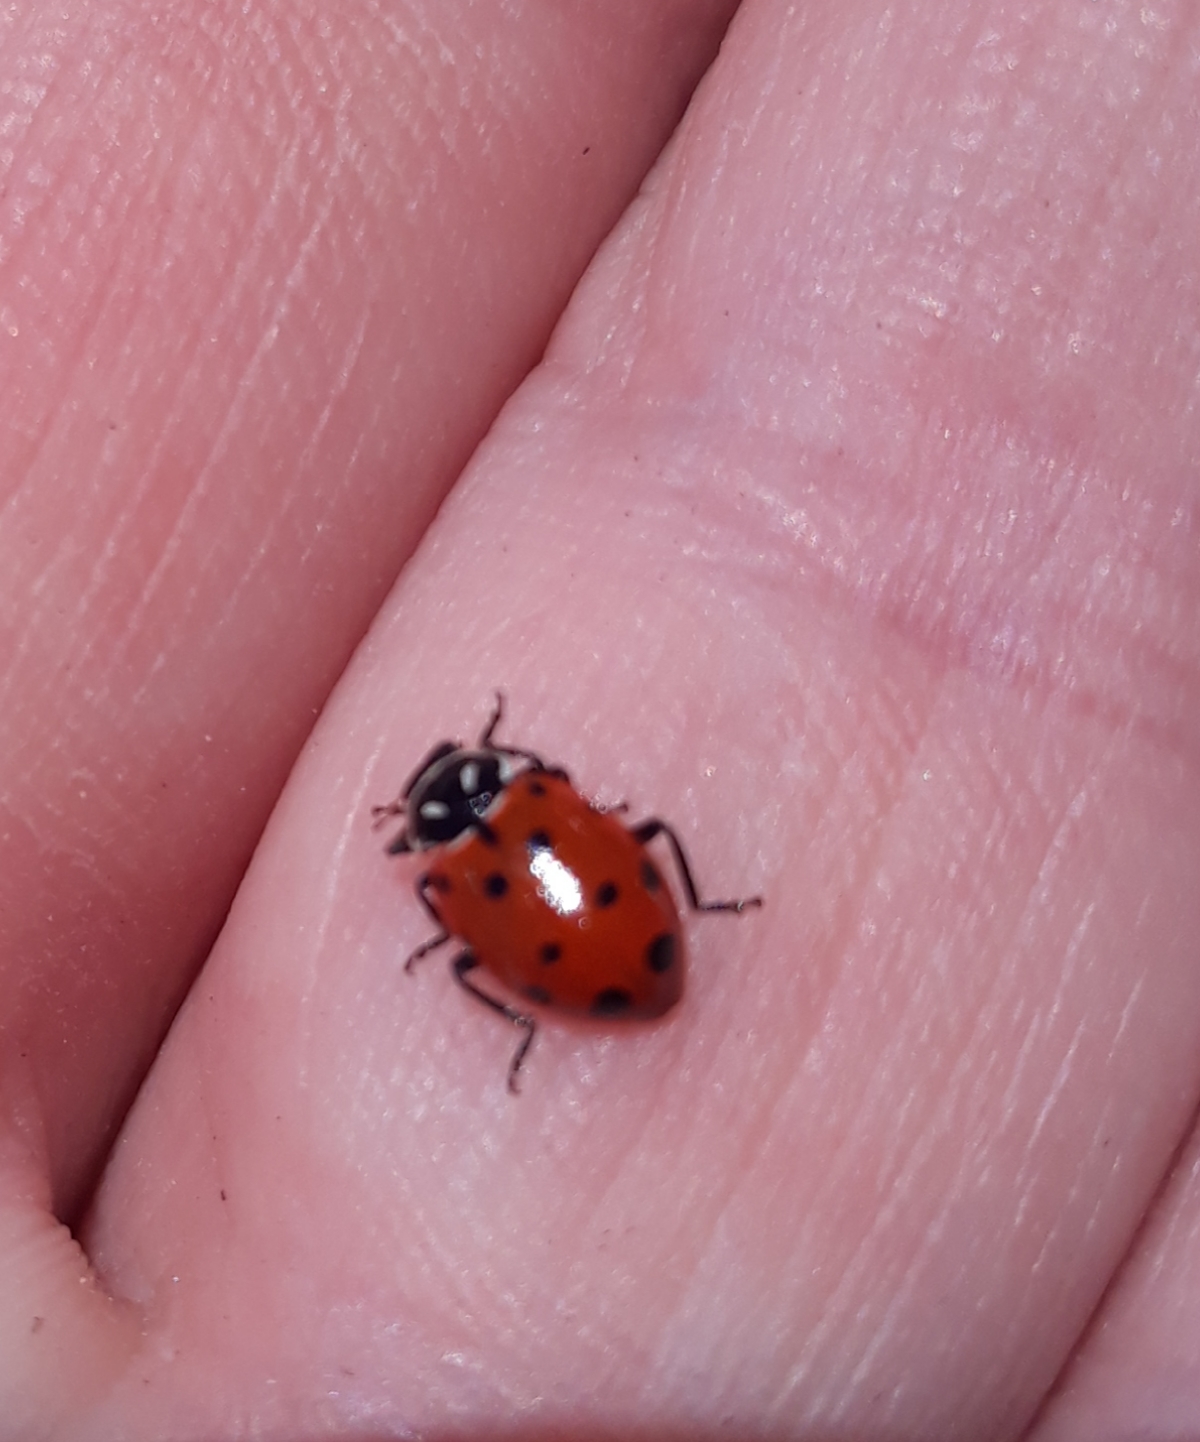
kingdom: Animalia
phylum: Arthropoda
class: Insecta
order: Coleoptera
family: Coccinellidae
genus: Hippodamia
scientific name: Hippodamia convergens
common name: Convergent lady beetle
